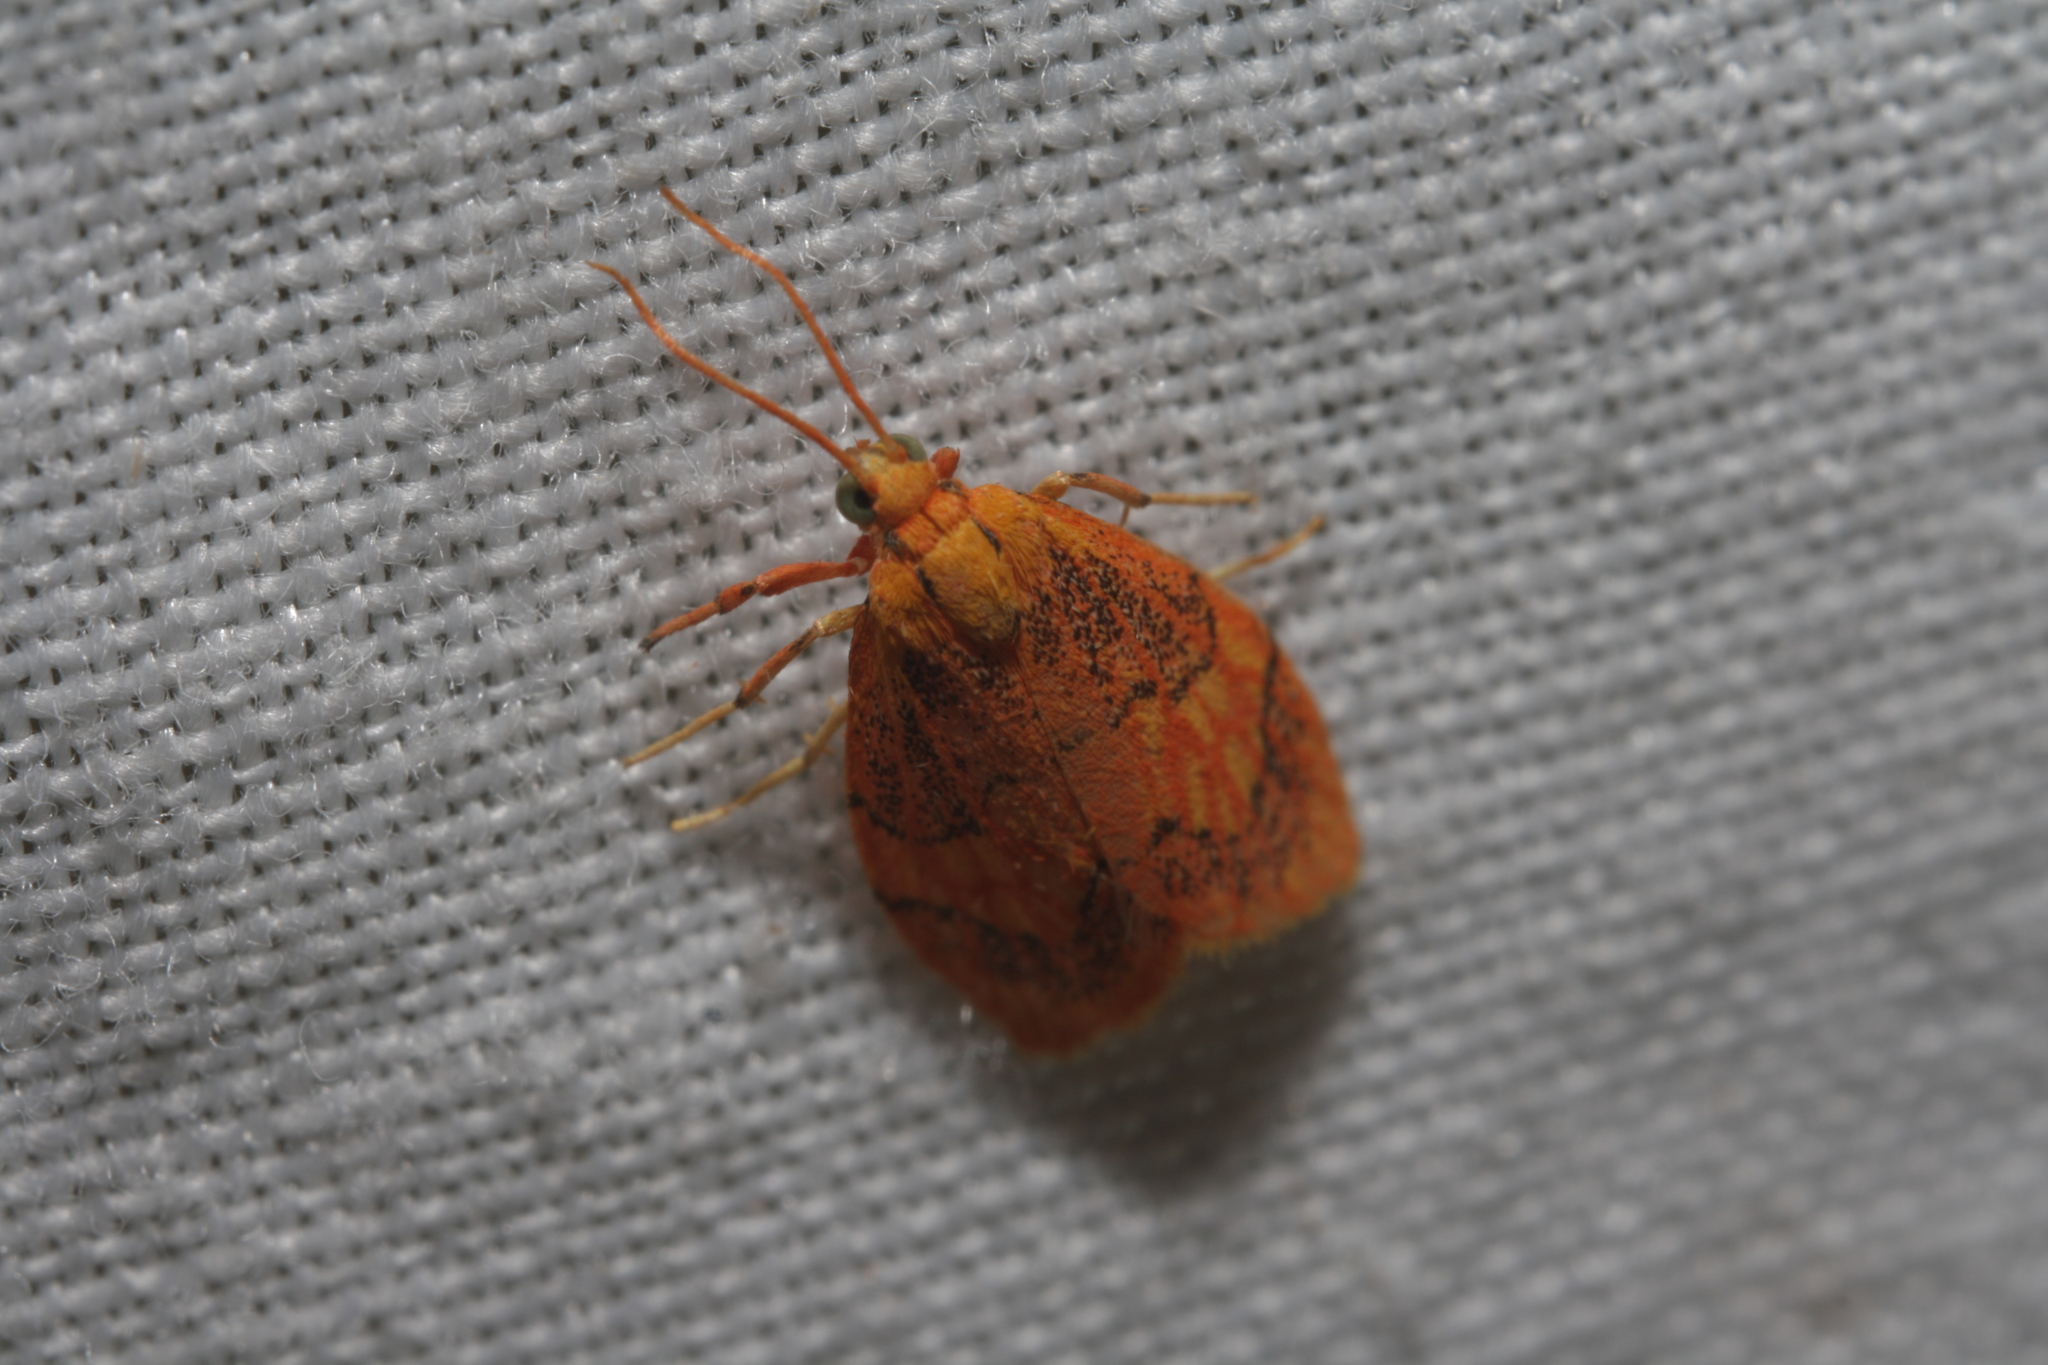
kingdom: Animalia
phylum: Arthropoda
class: Insecta
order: Lepidoptera
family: Erebidae
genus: Abrochocis
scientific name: Abrochocis esperanza
